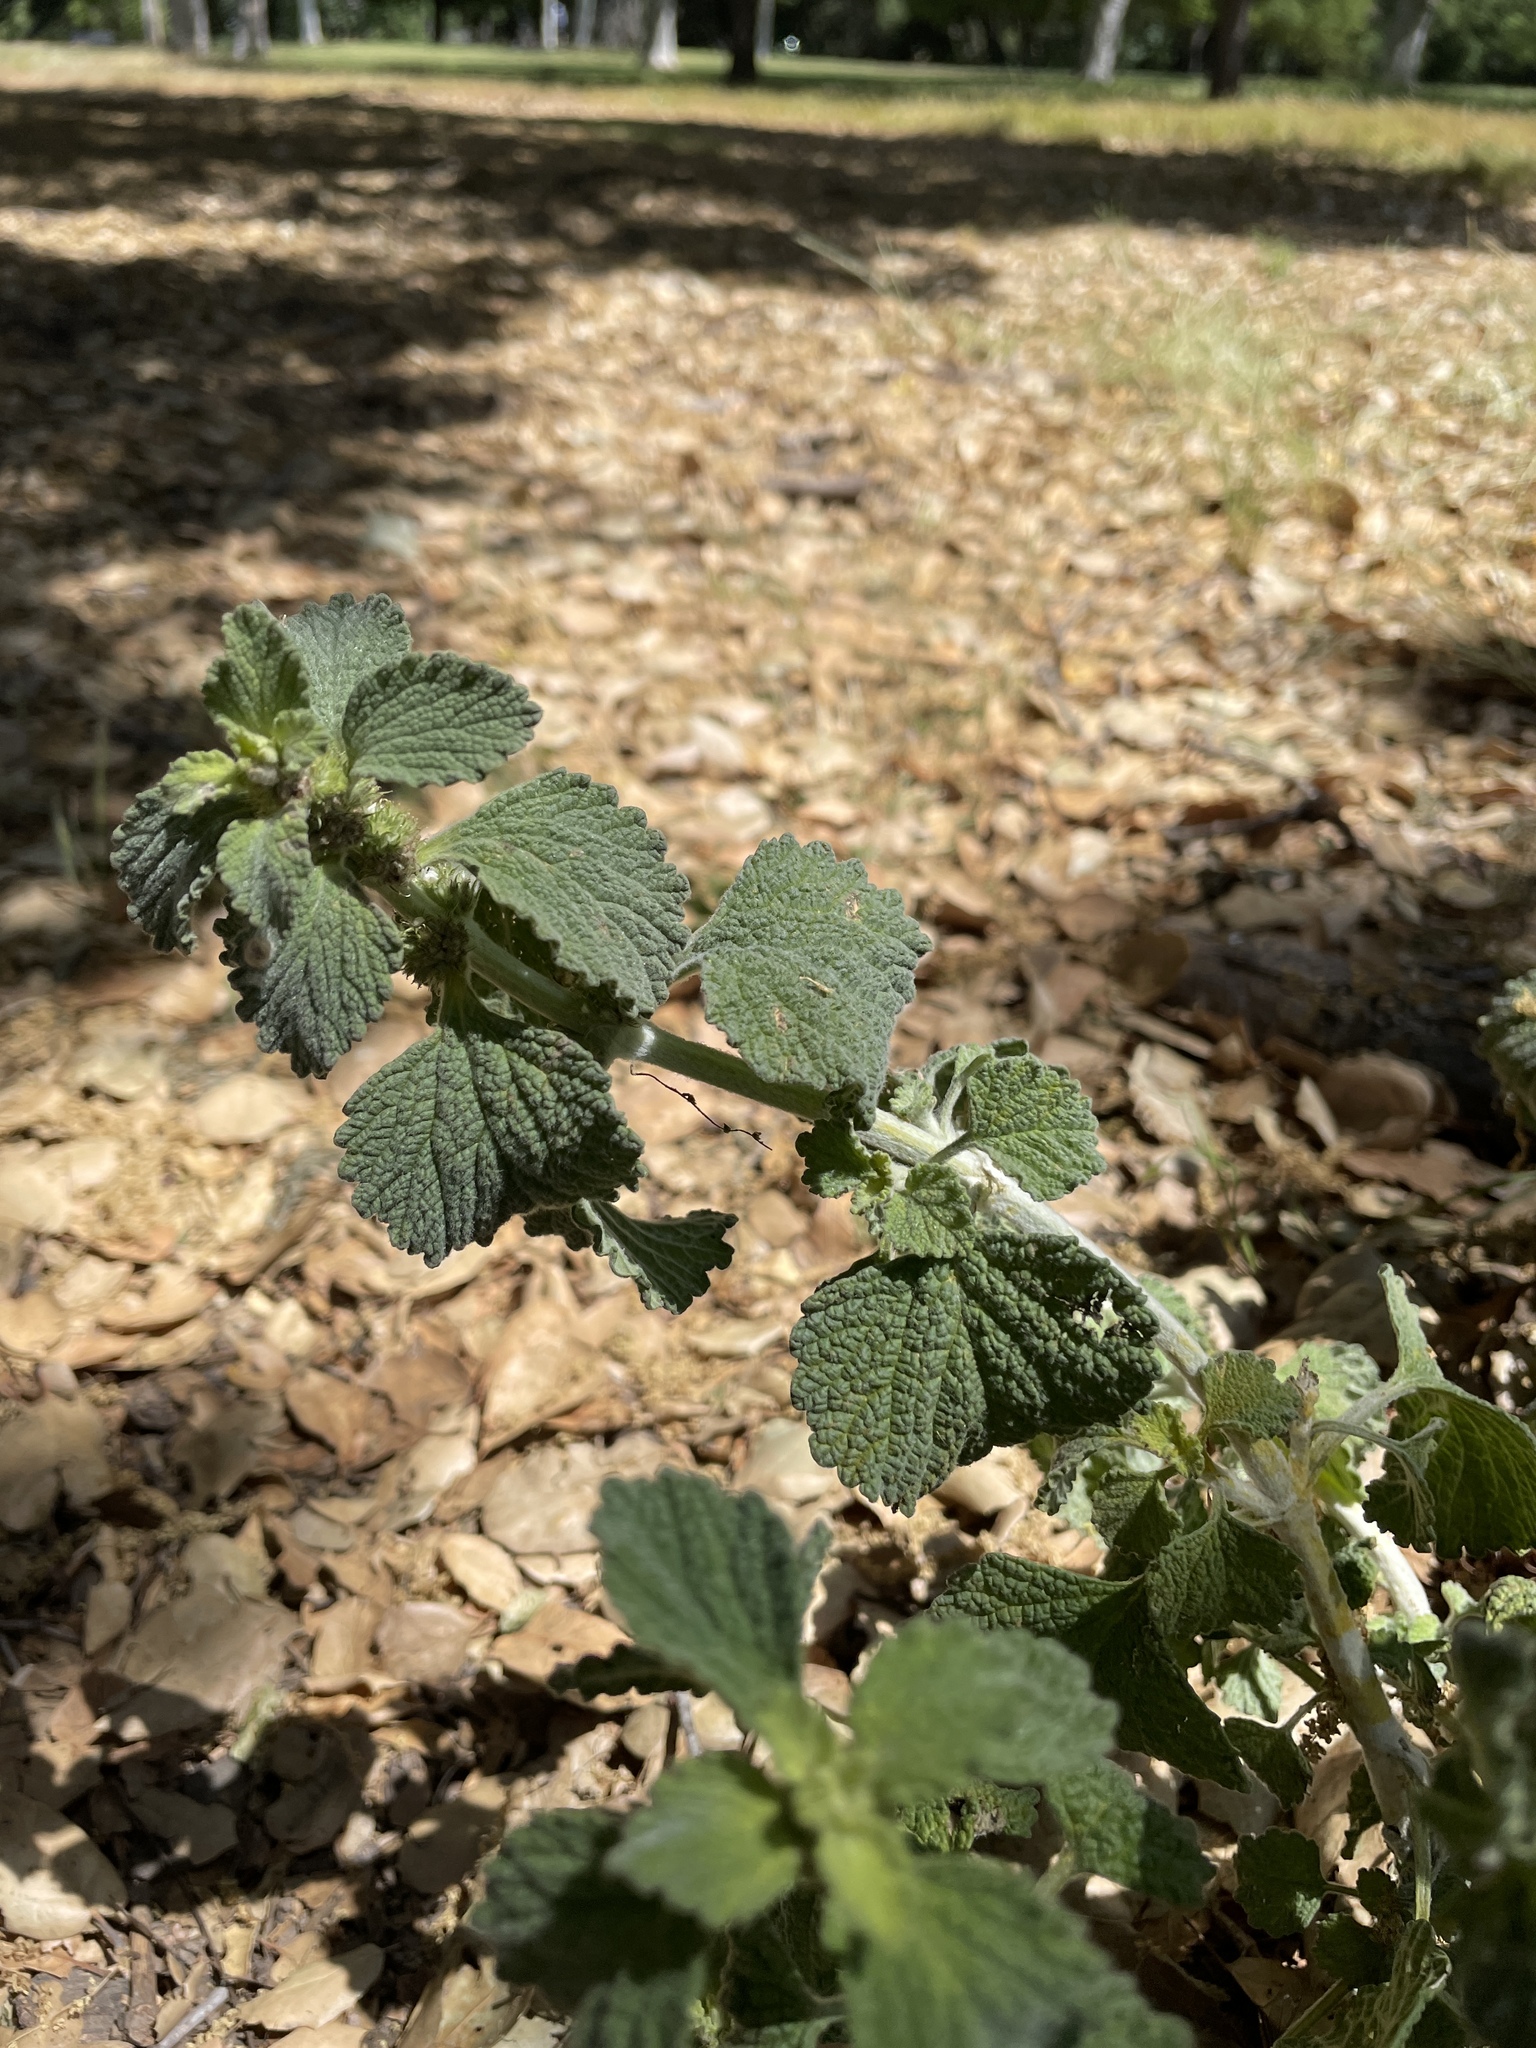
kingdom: Plantae
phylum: Tracheophyta
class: Magnoliopsida
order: Lamiales
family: Lamiaceae
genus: Marrubium
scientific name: Marrubium vulgare
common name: Horehound
